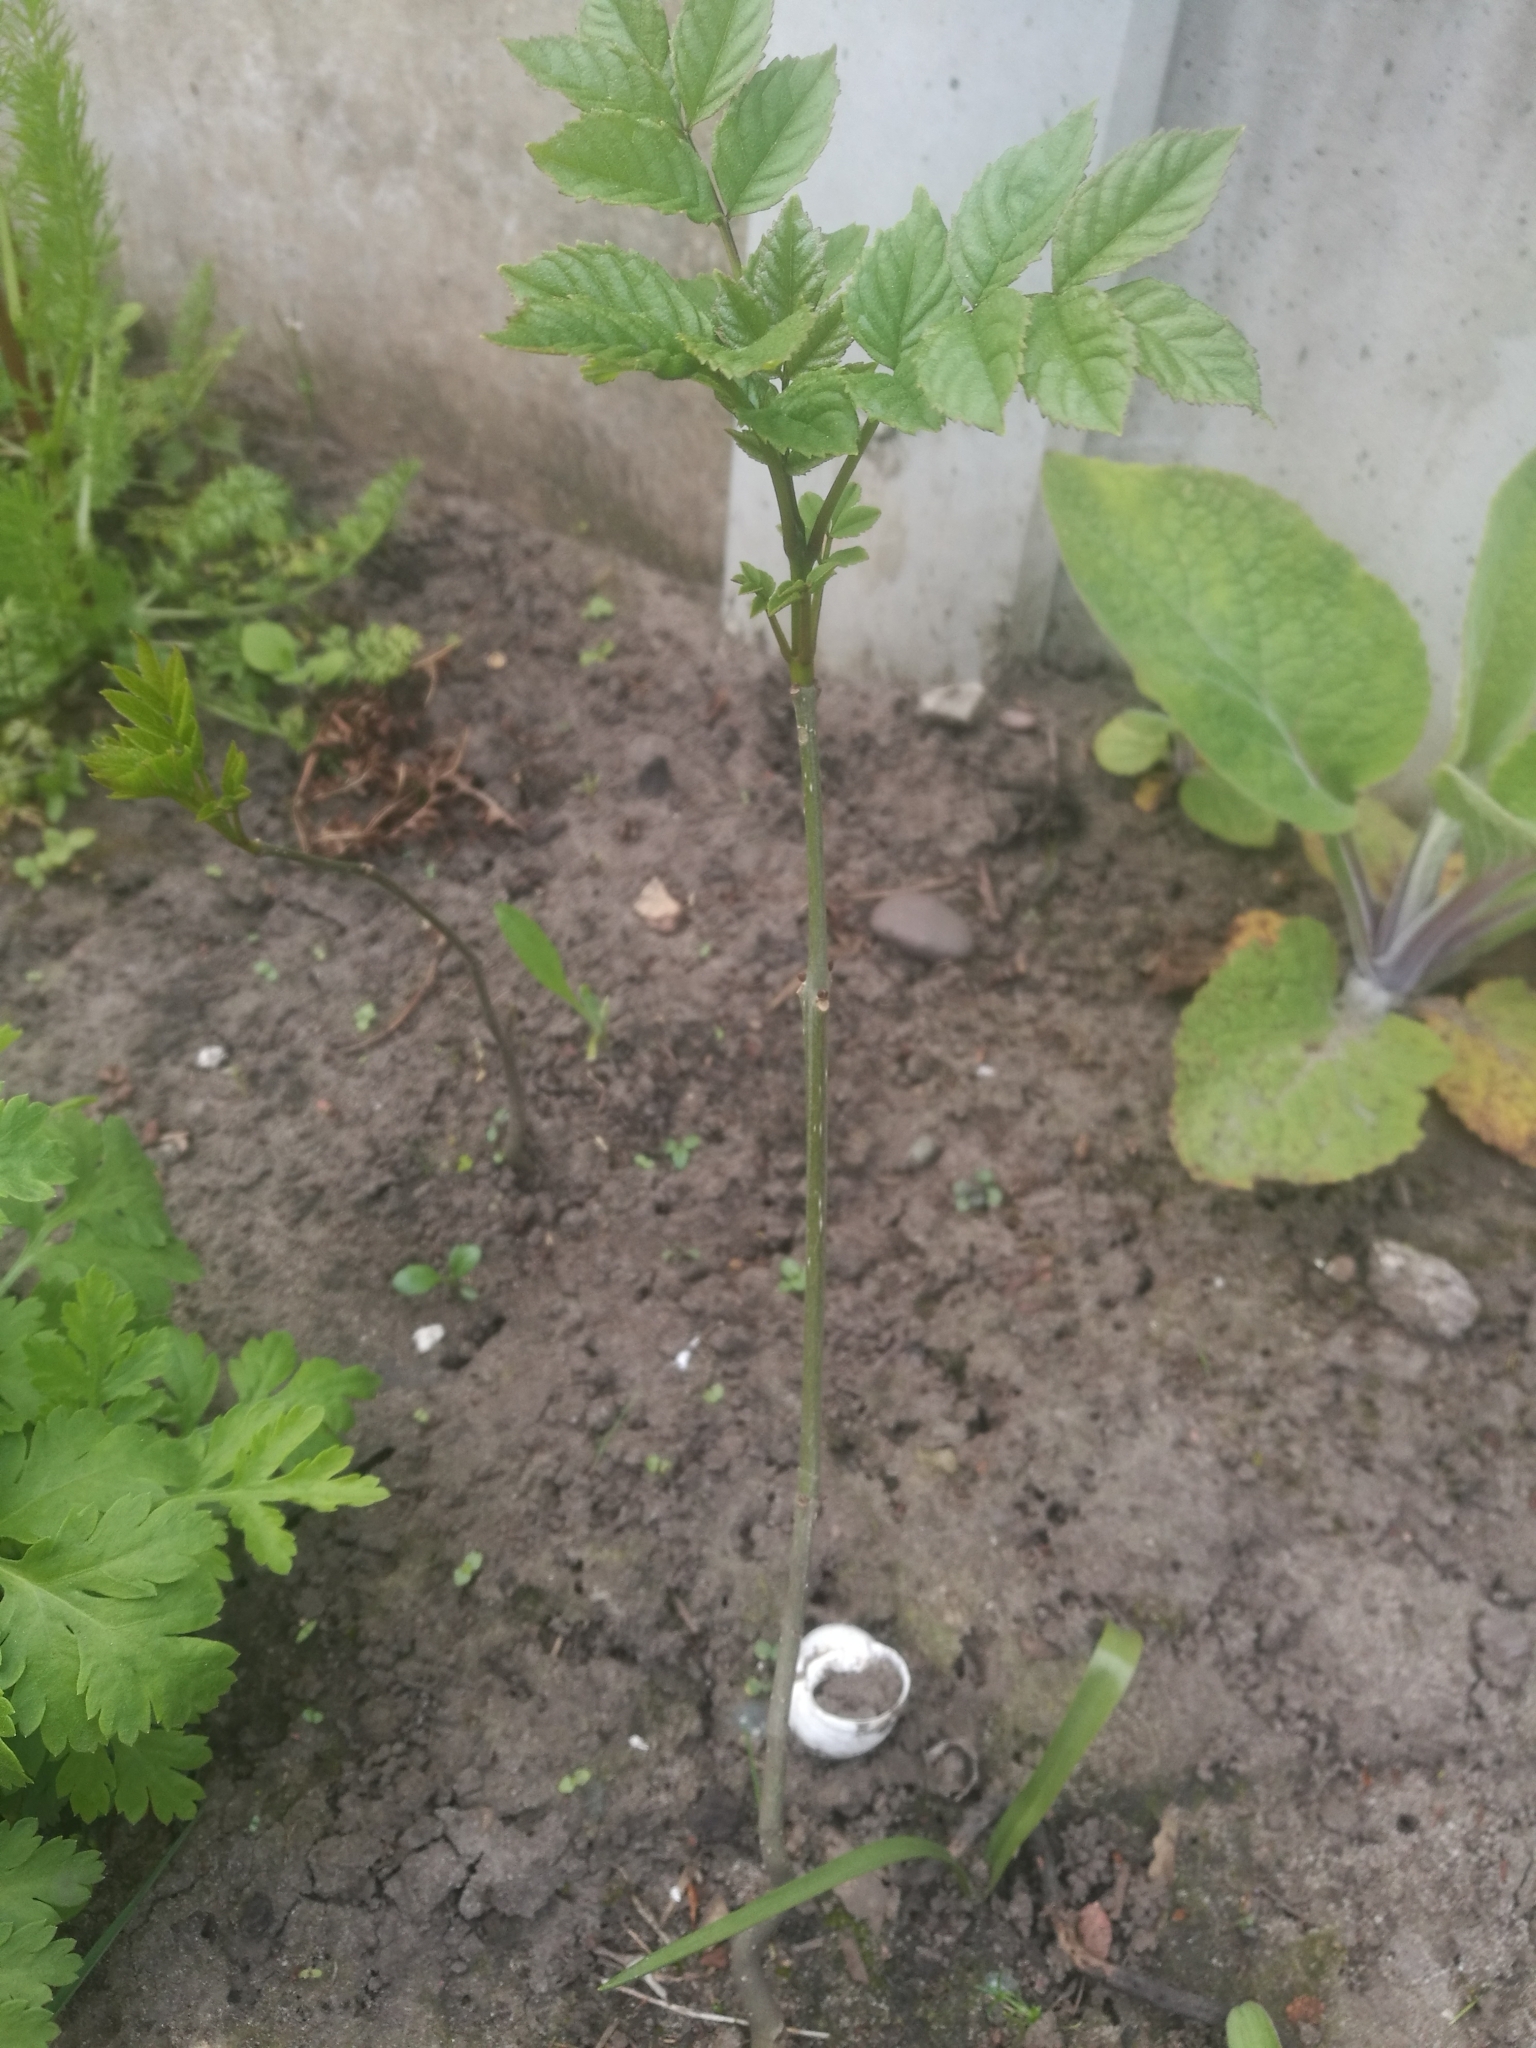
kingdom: Plantae
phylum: Tracheophyta
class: Magnoliopsida
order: Lamiales
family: Oleaceae
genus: Fraxinus
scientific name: Fraxinus excelsior
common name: European ash
